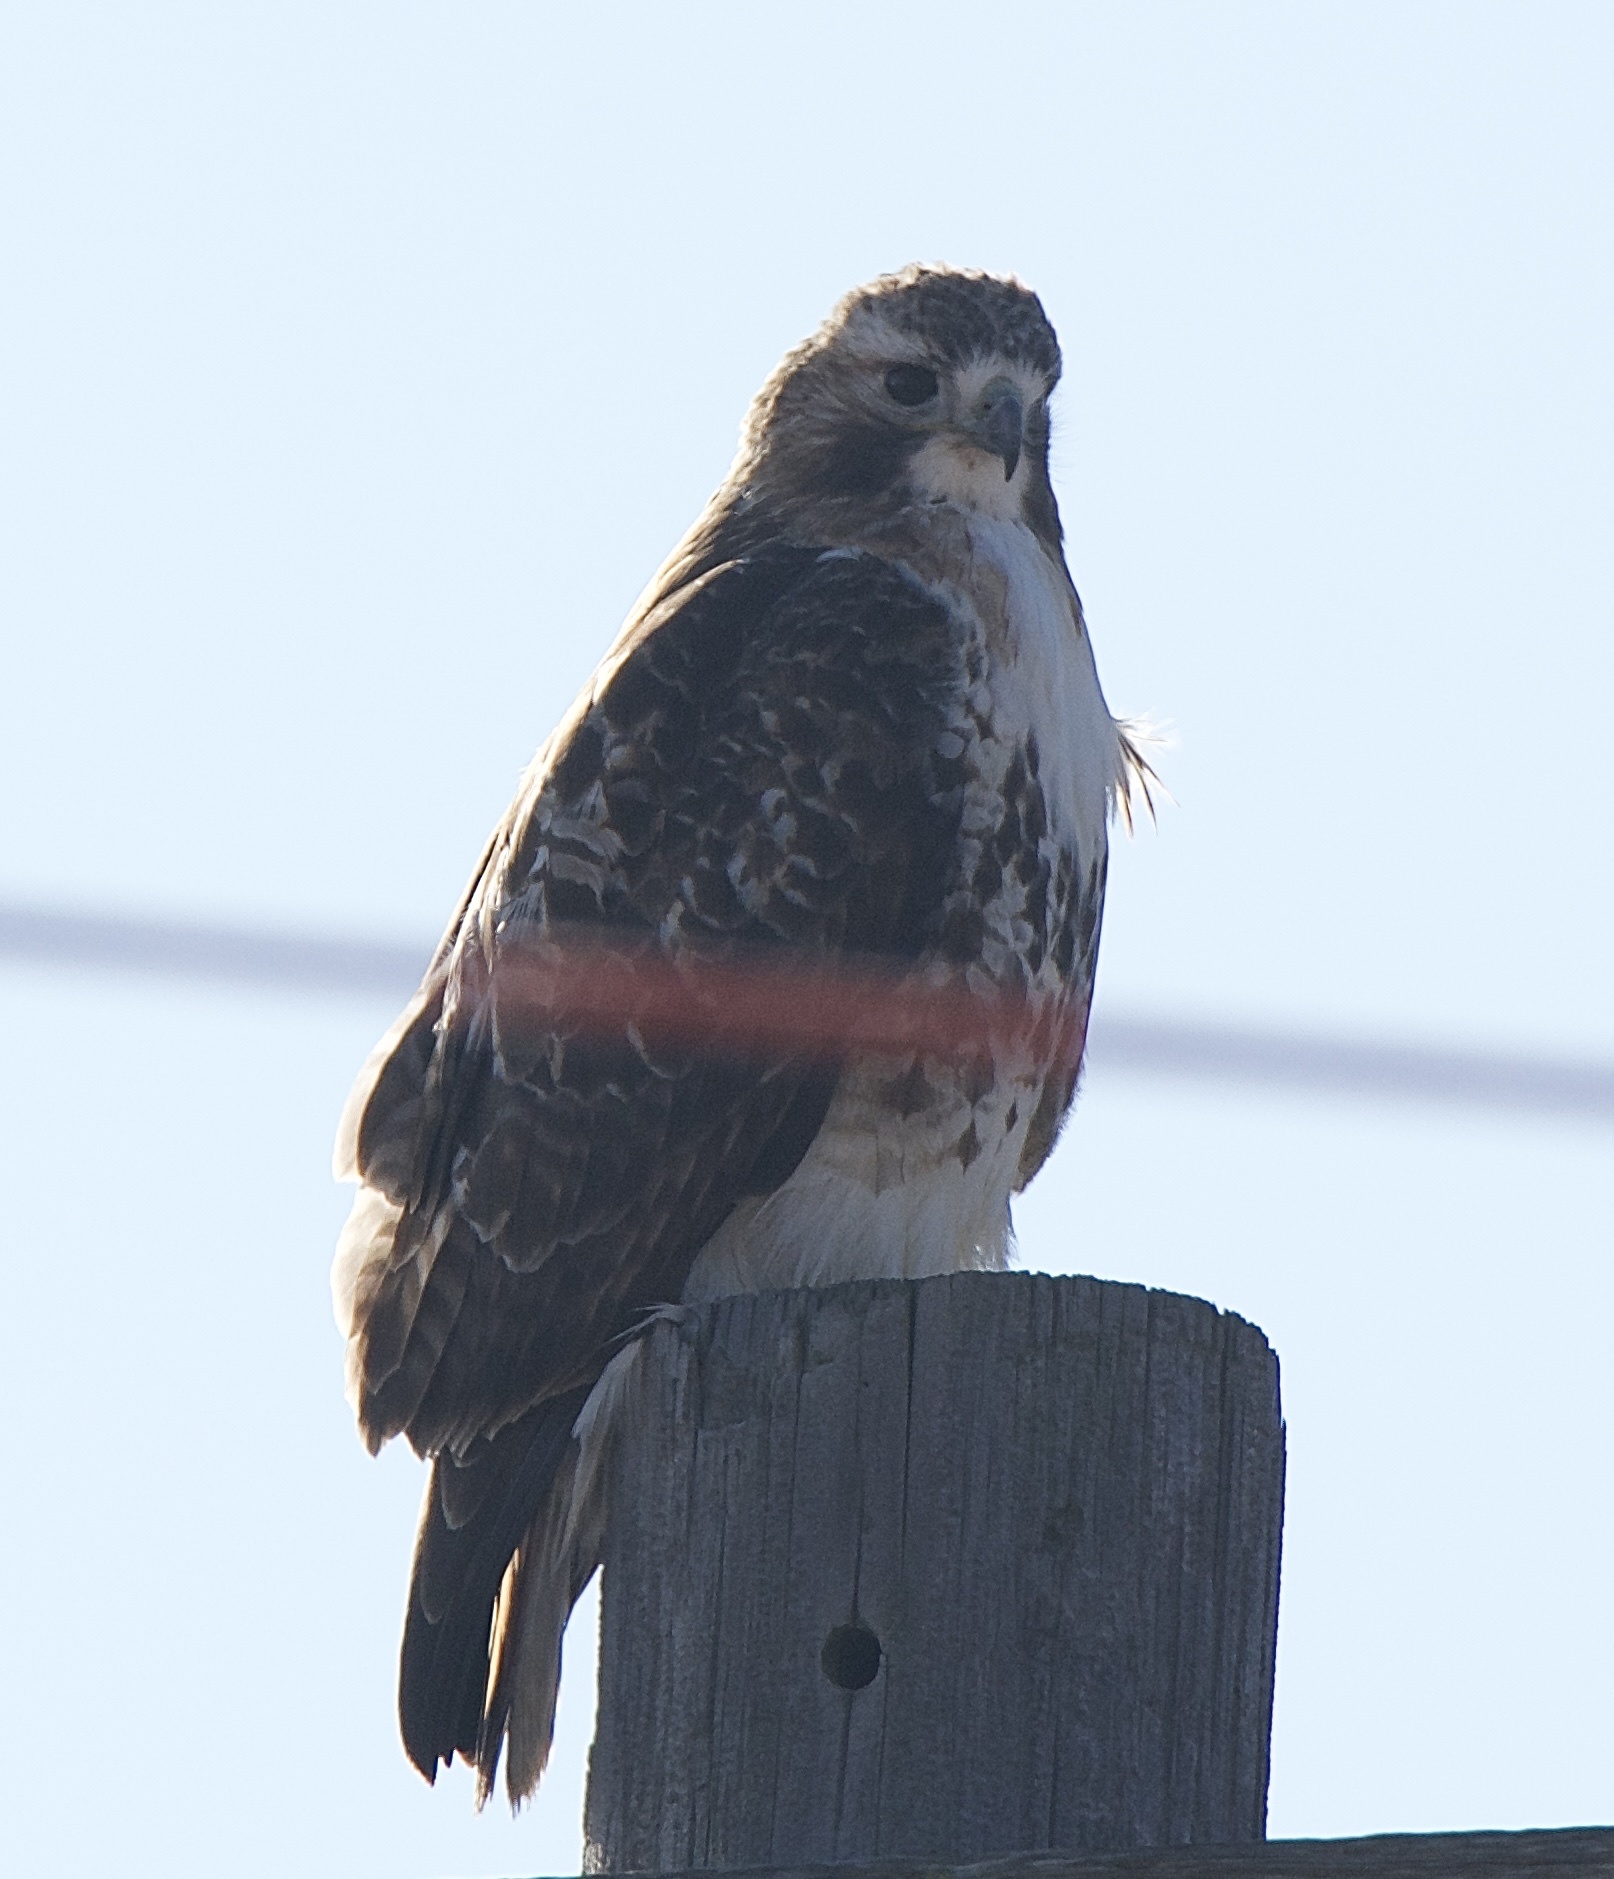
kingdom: Animalia
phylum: Chordata
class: Aves
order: Accipitriformes
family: Accipitridae
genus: Buteo
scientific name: Buteo jamaicensis
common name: Red-tailed hawk
